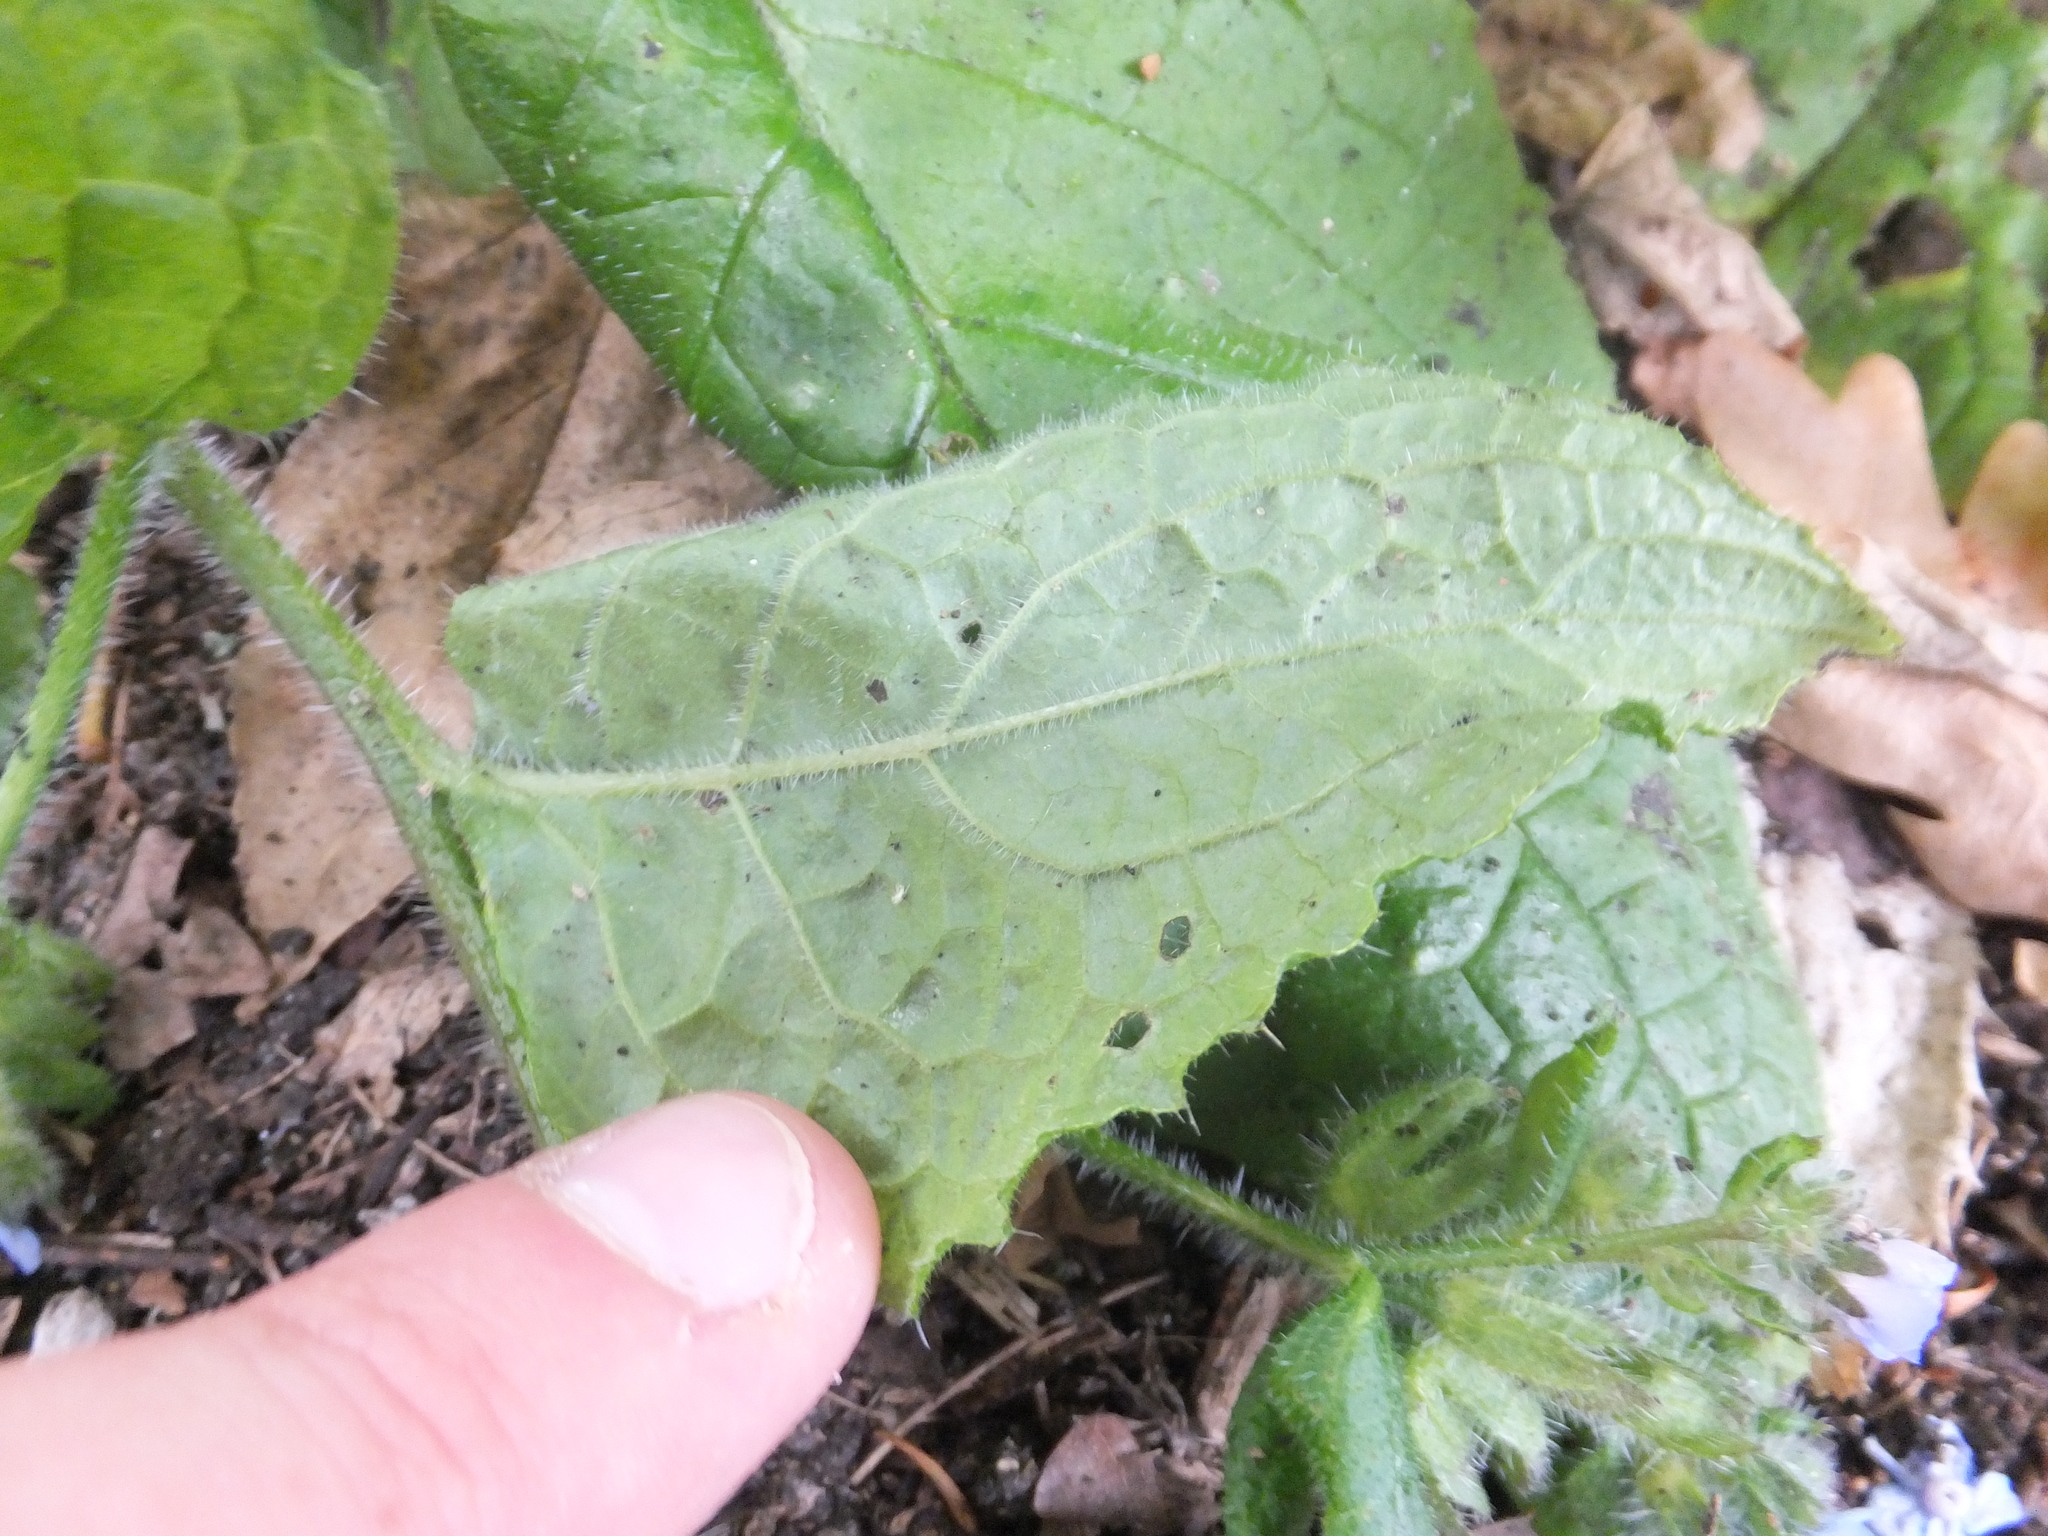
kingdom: Plantae
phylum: Tracheophyta
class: Magnoliopsida
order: Boraginales
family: Boraginaceae
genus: Pentaglottis
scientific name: Pentaglottis sempervirens
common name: Green alkanet
